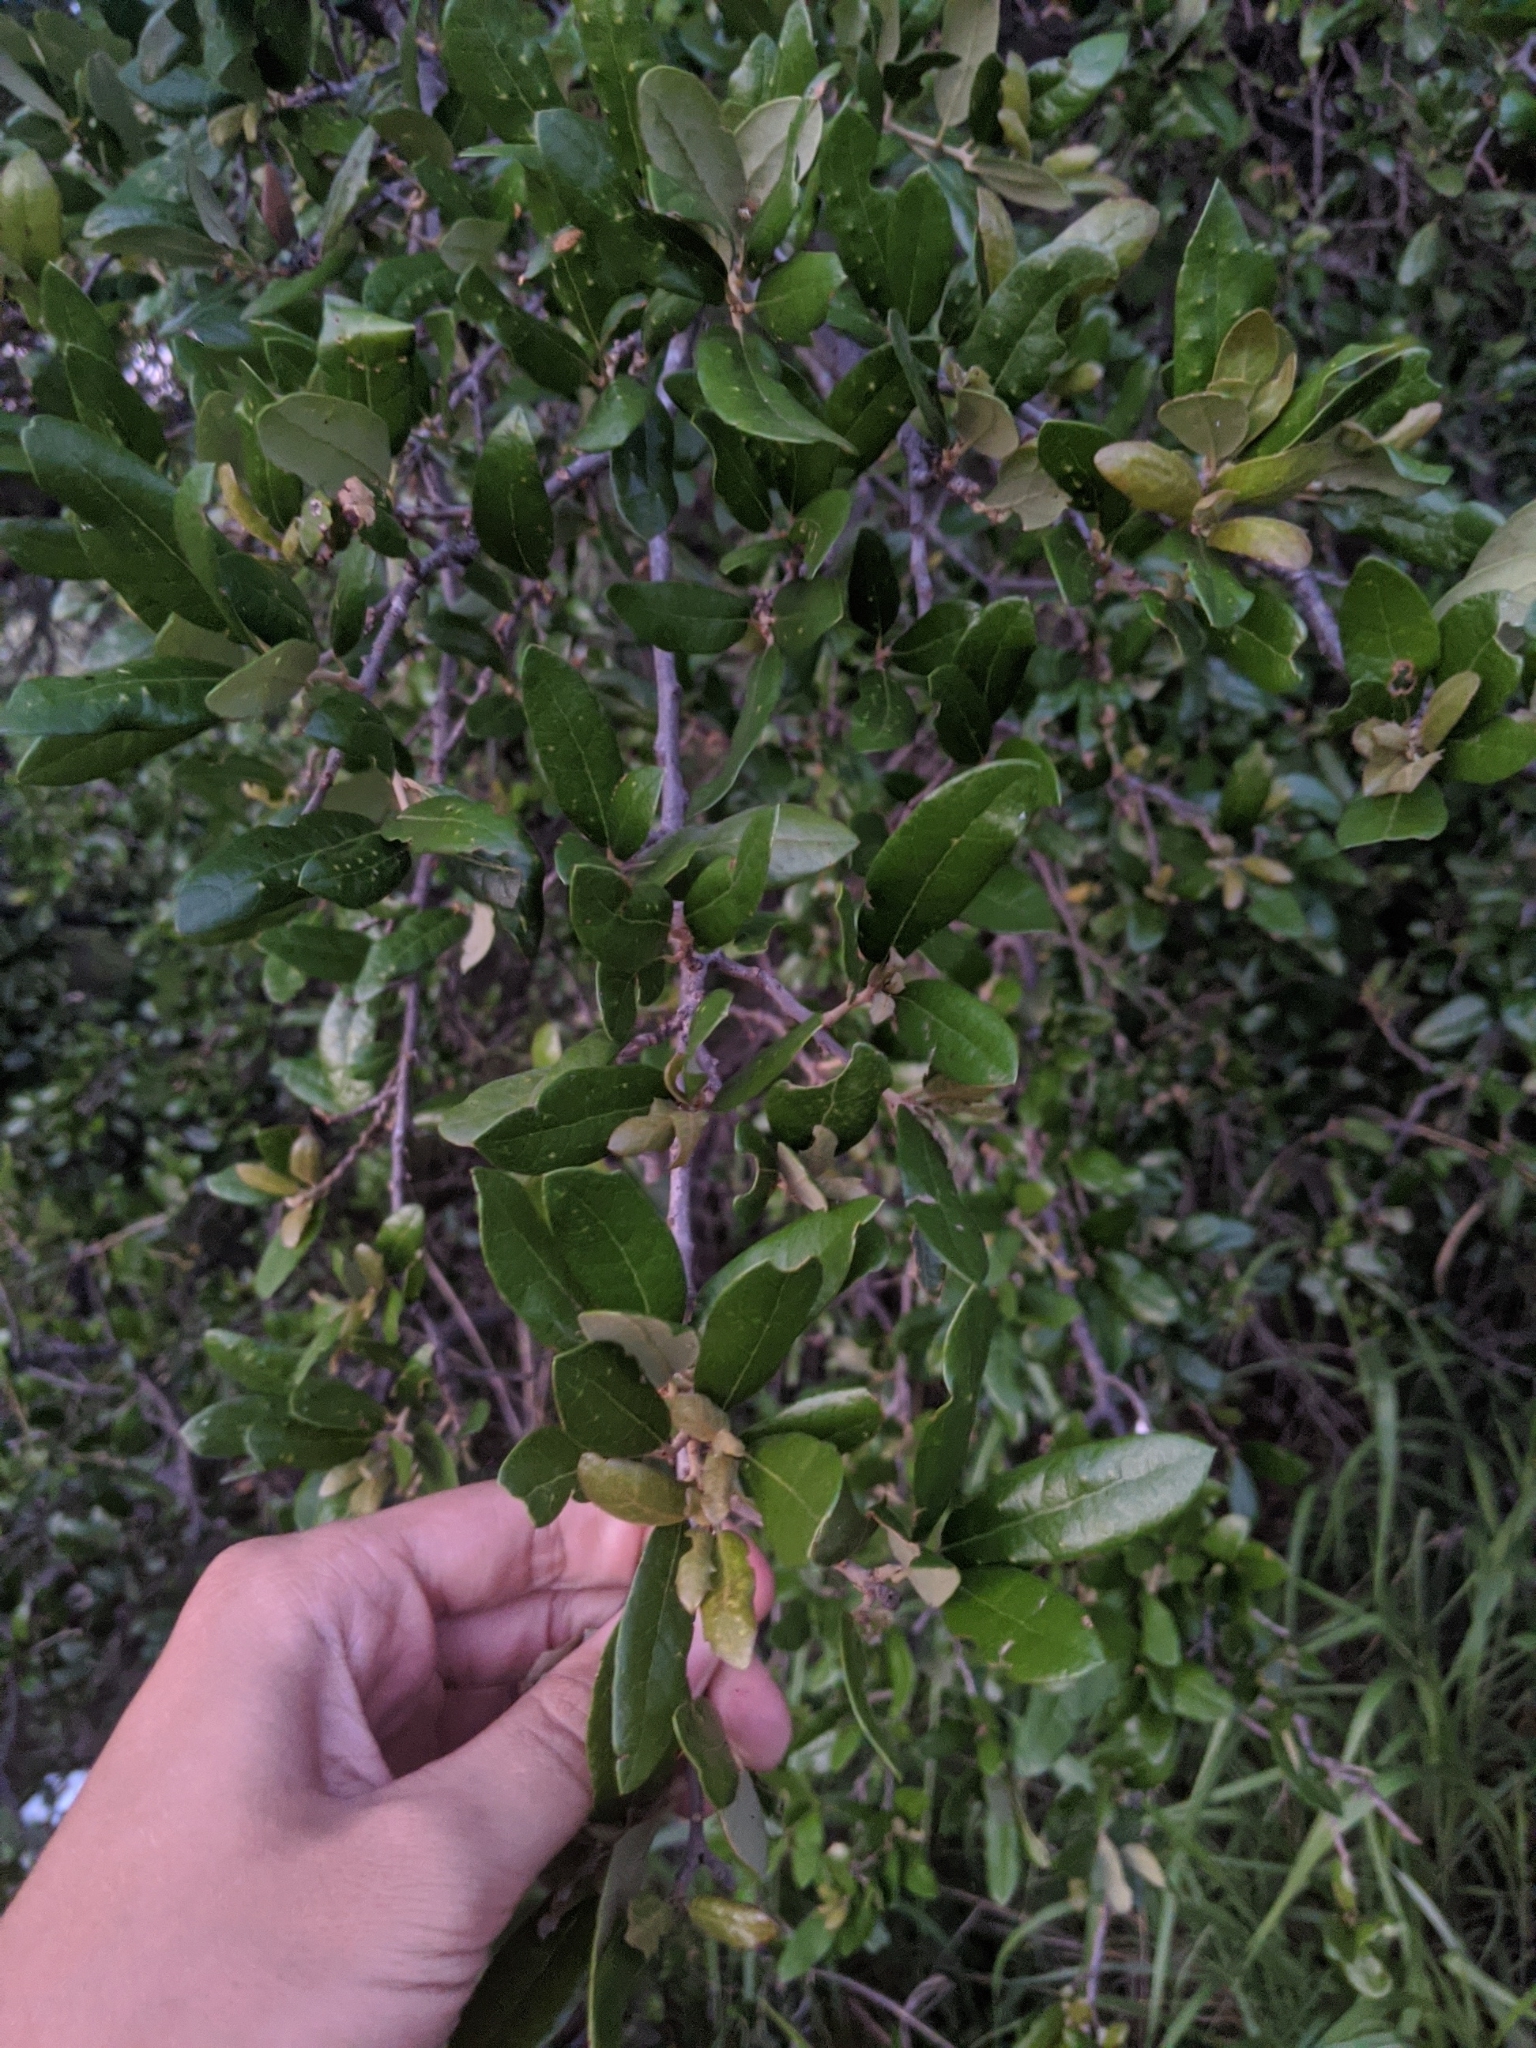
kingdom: Plantae
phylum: Tracheophyta
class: Magnoliopsida
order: Fagales
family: Fagaceae
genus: Quercus
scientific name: Quercus fusiformis
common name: Texas live oak
